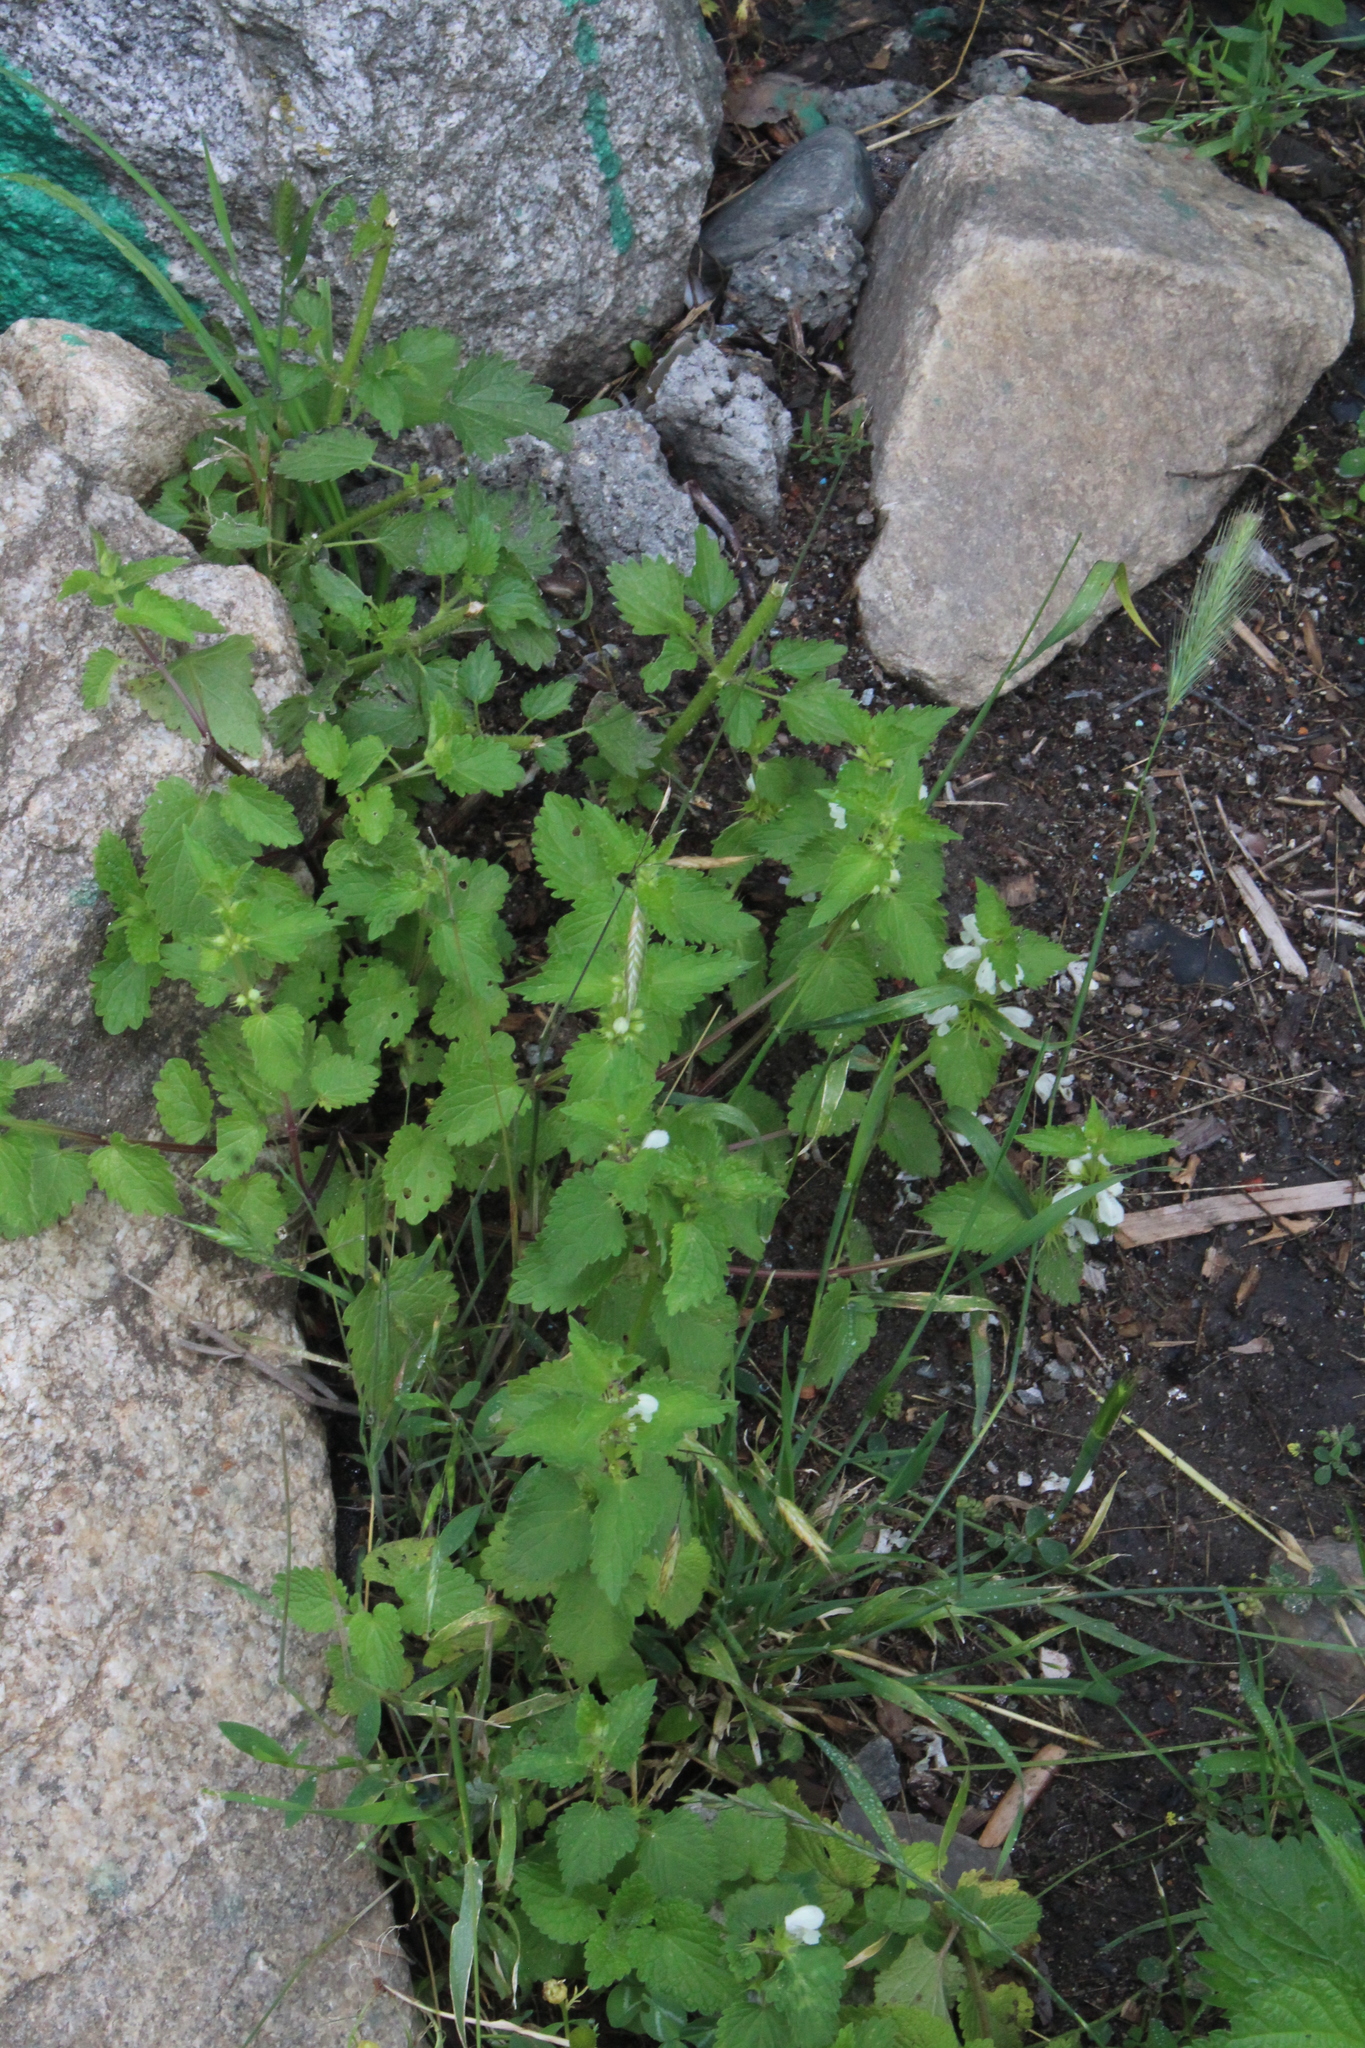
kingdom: Plantae
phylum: Tracheophyta
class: Magnoliopsida
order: Lamiales
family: Lamiaceae
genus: Lamium
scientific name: Lamium album
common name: White dead-nettle
